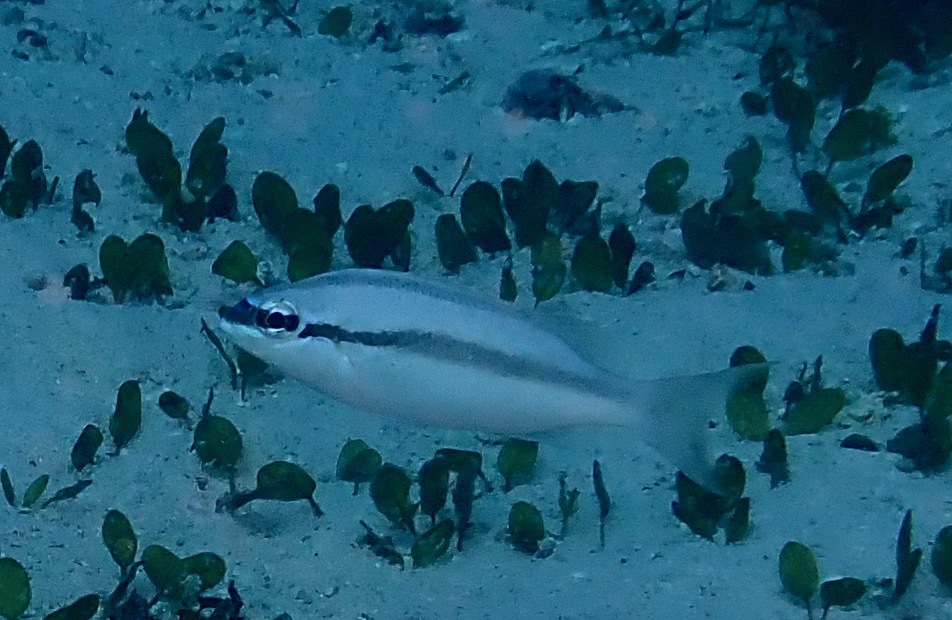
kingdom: Animalia
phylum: Chordata
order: Perciformes
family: Nemipteridae
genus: Scolopsis
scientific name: Scolopsis affinis
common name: Peters' monocle bream
